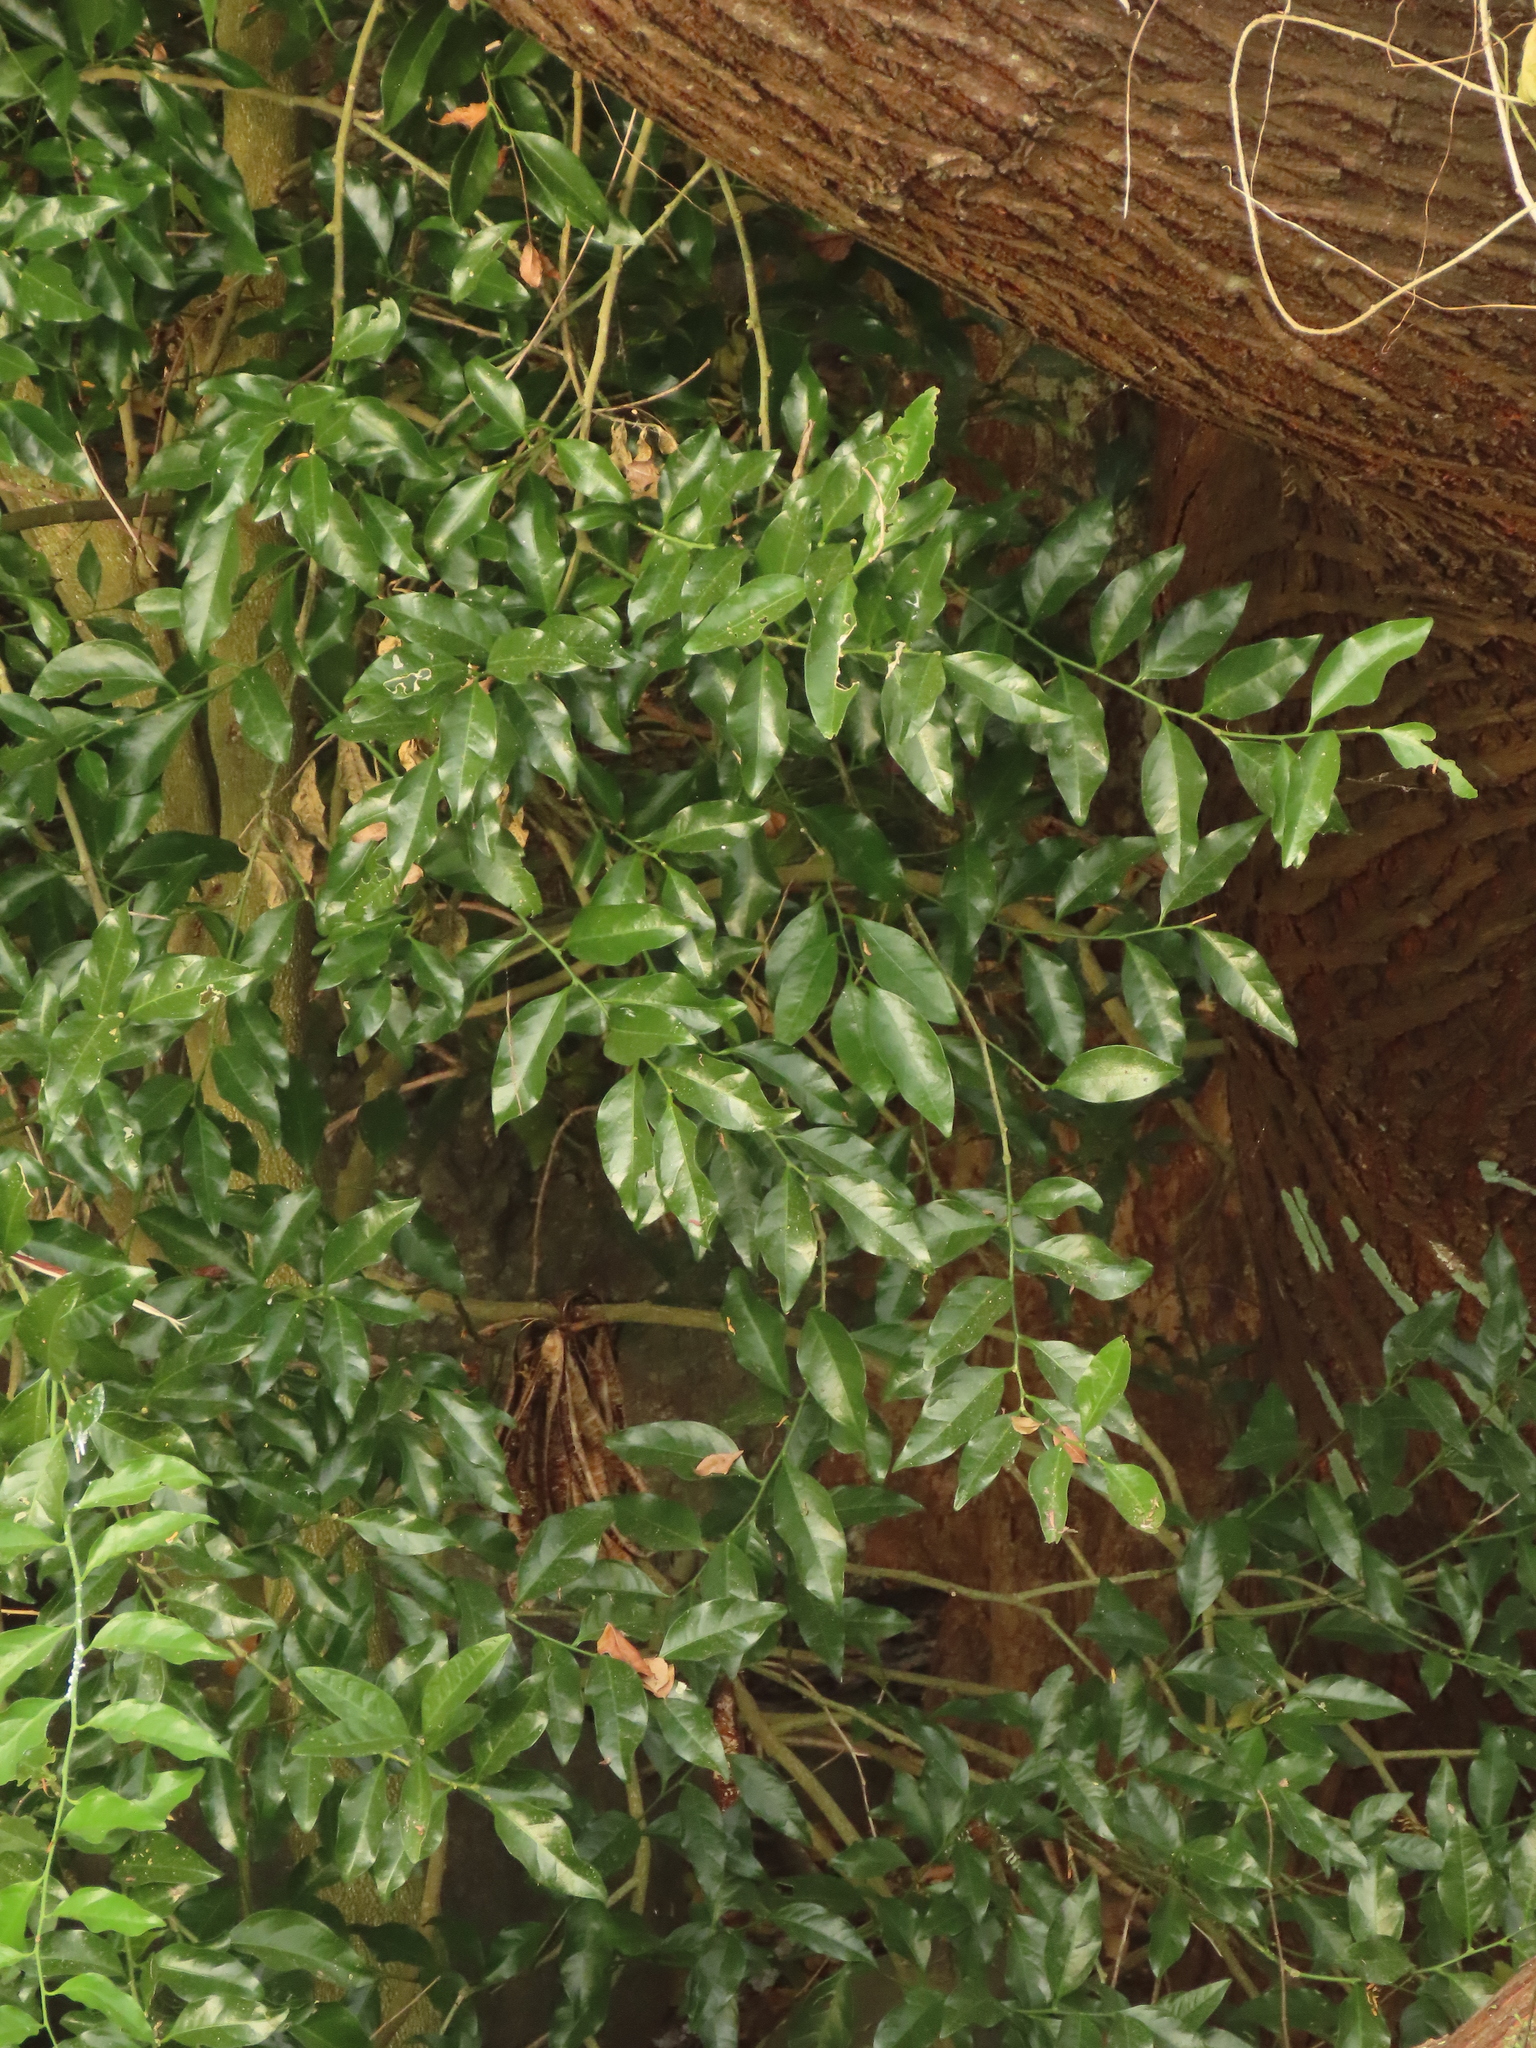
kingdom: Plantae
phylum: Tracheophyta
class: Magnoliopsida
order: Santalales
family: Opiliaceae
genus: Champereia
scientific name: Champereia manillana
